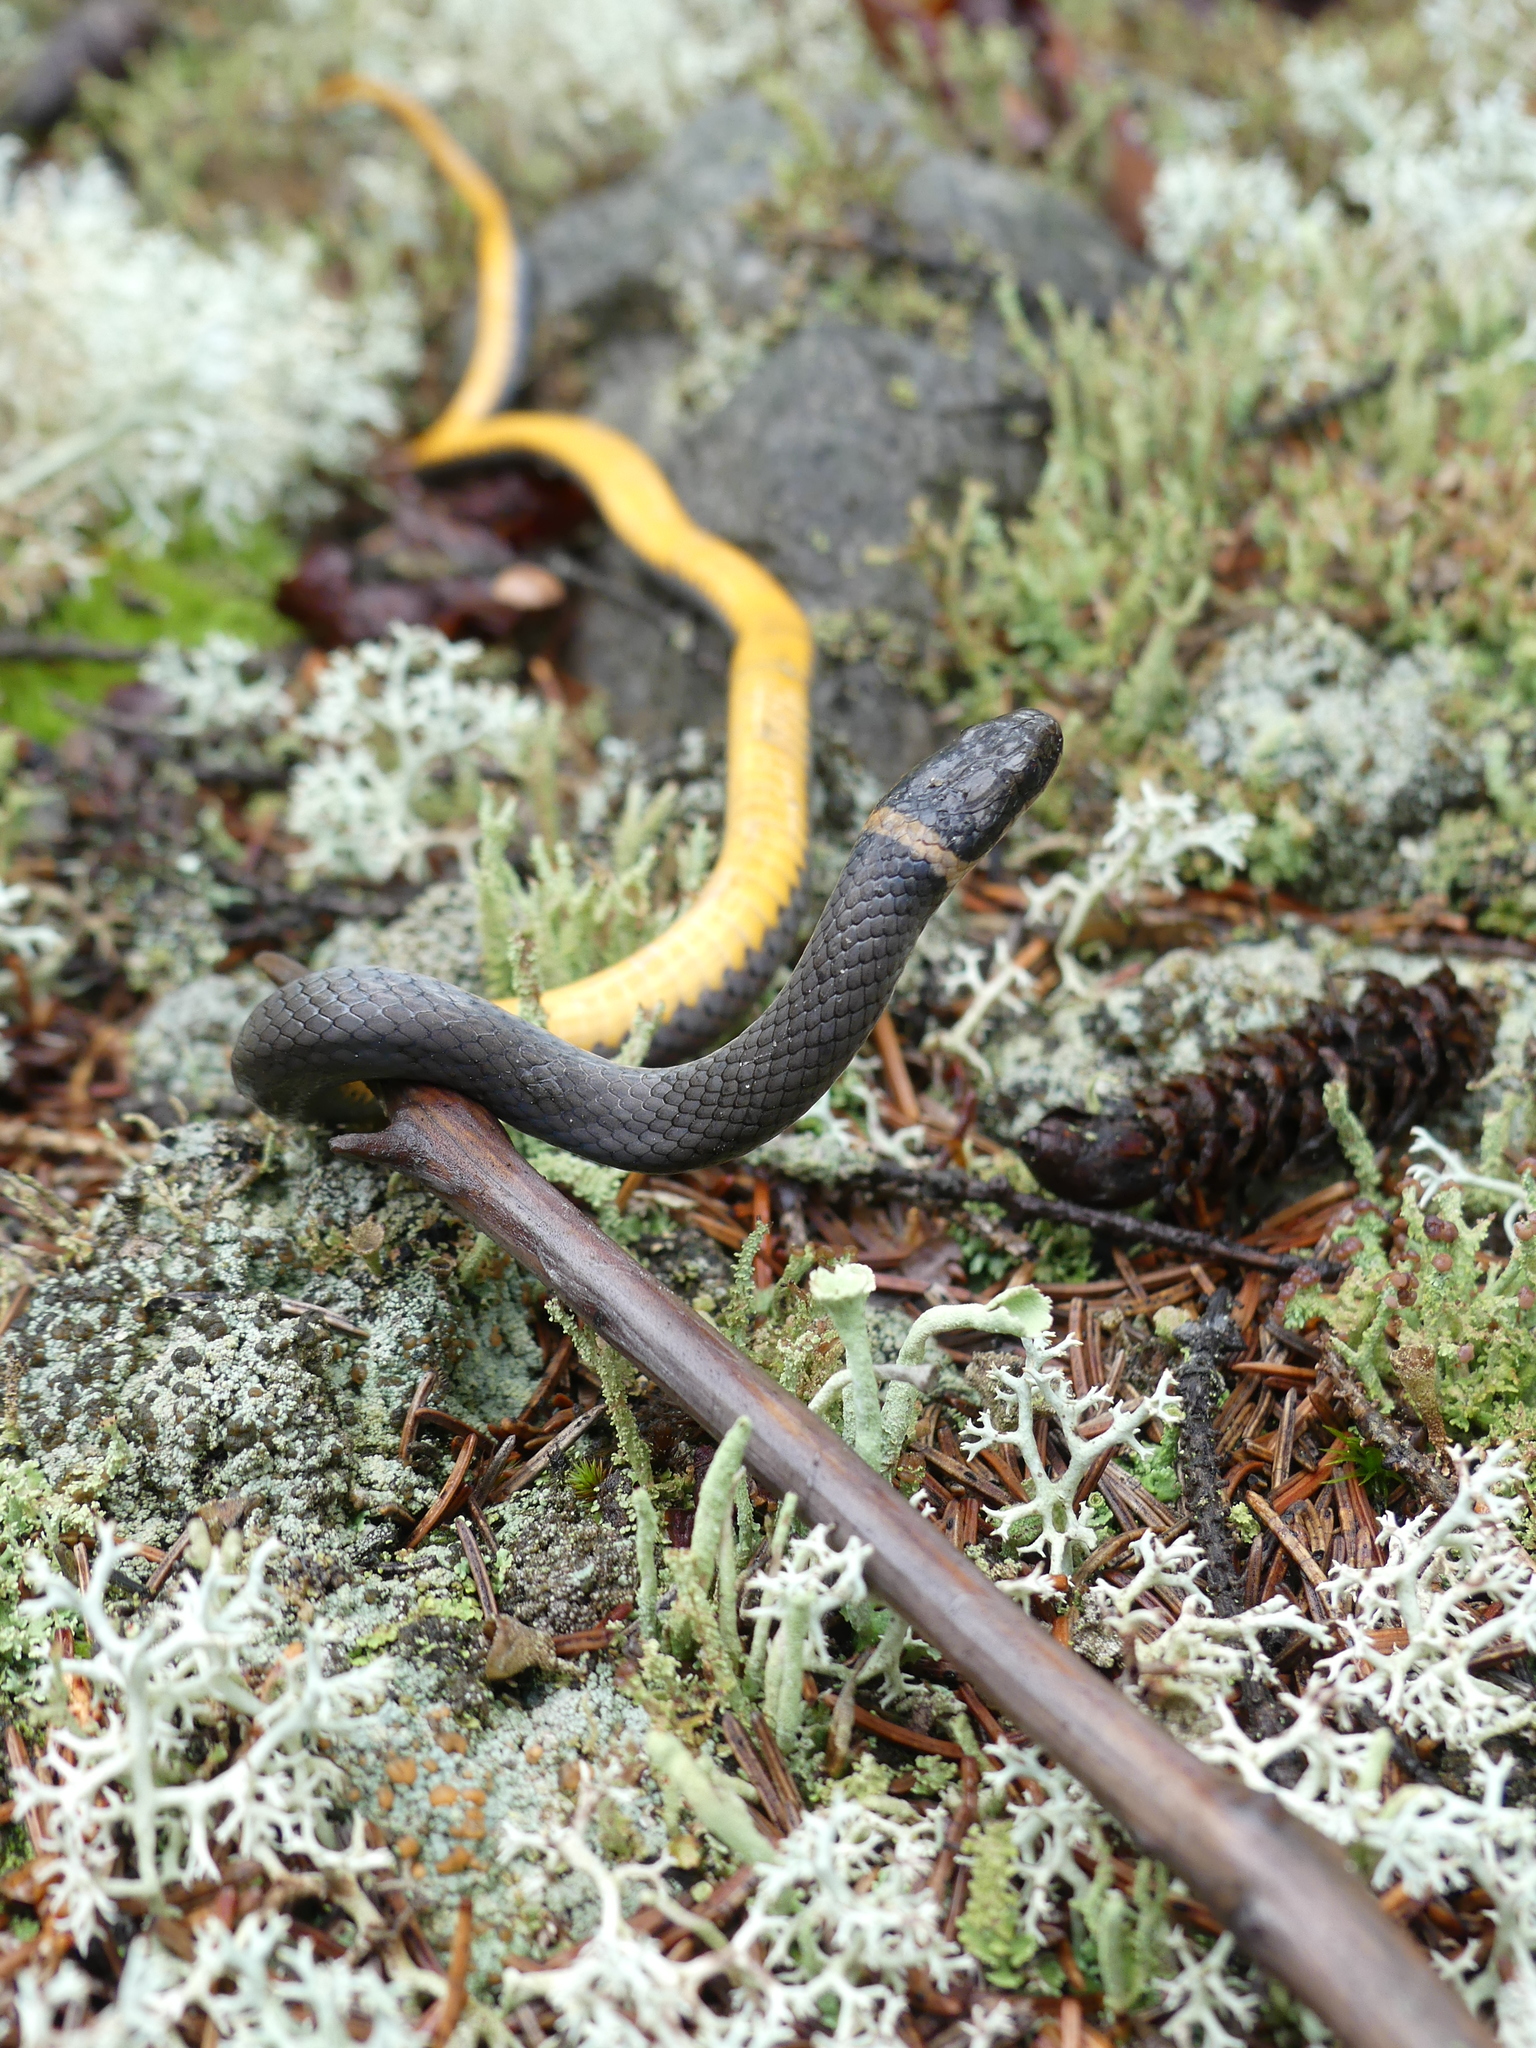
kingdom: Animalia
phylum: Chordata
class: Squamata
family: Colubridae
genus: Diadophis
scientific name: Diadophis punctatus
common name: Ringneck snake
